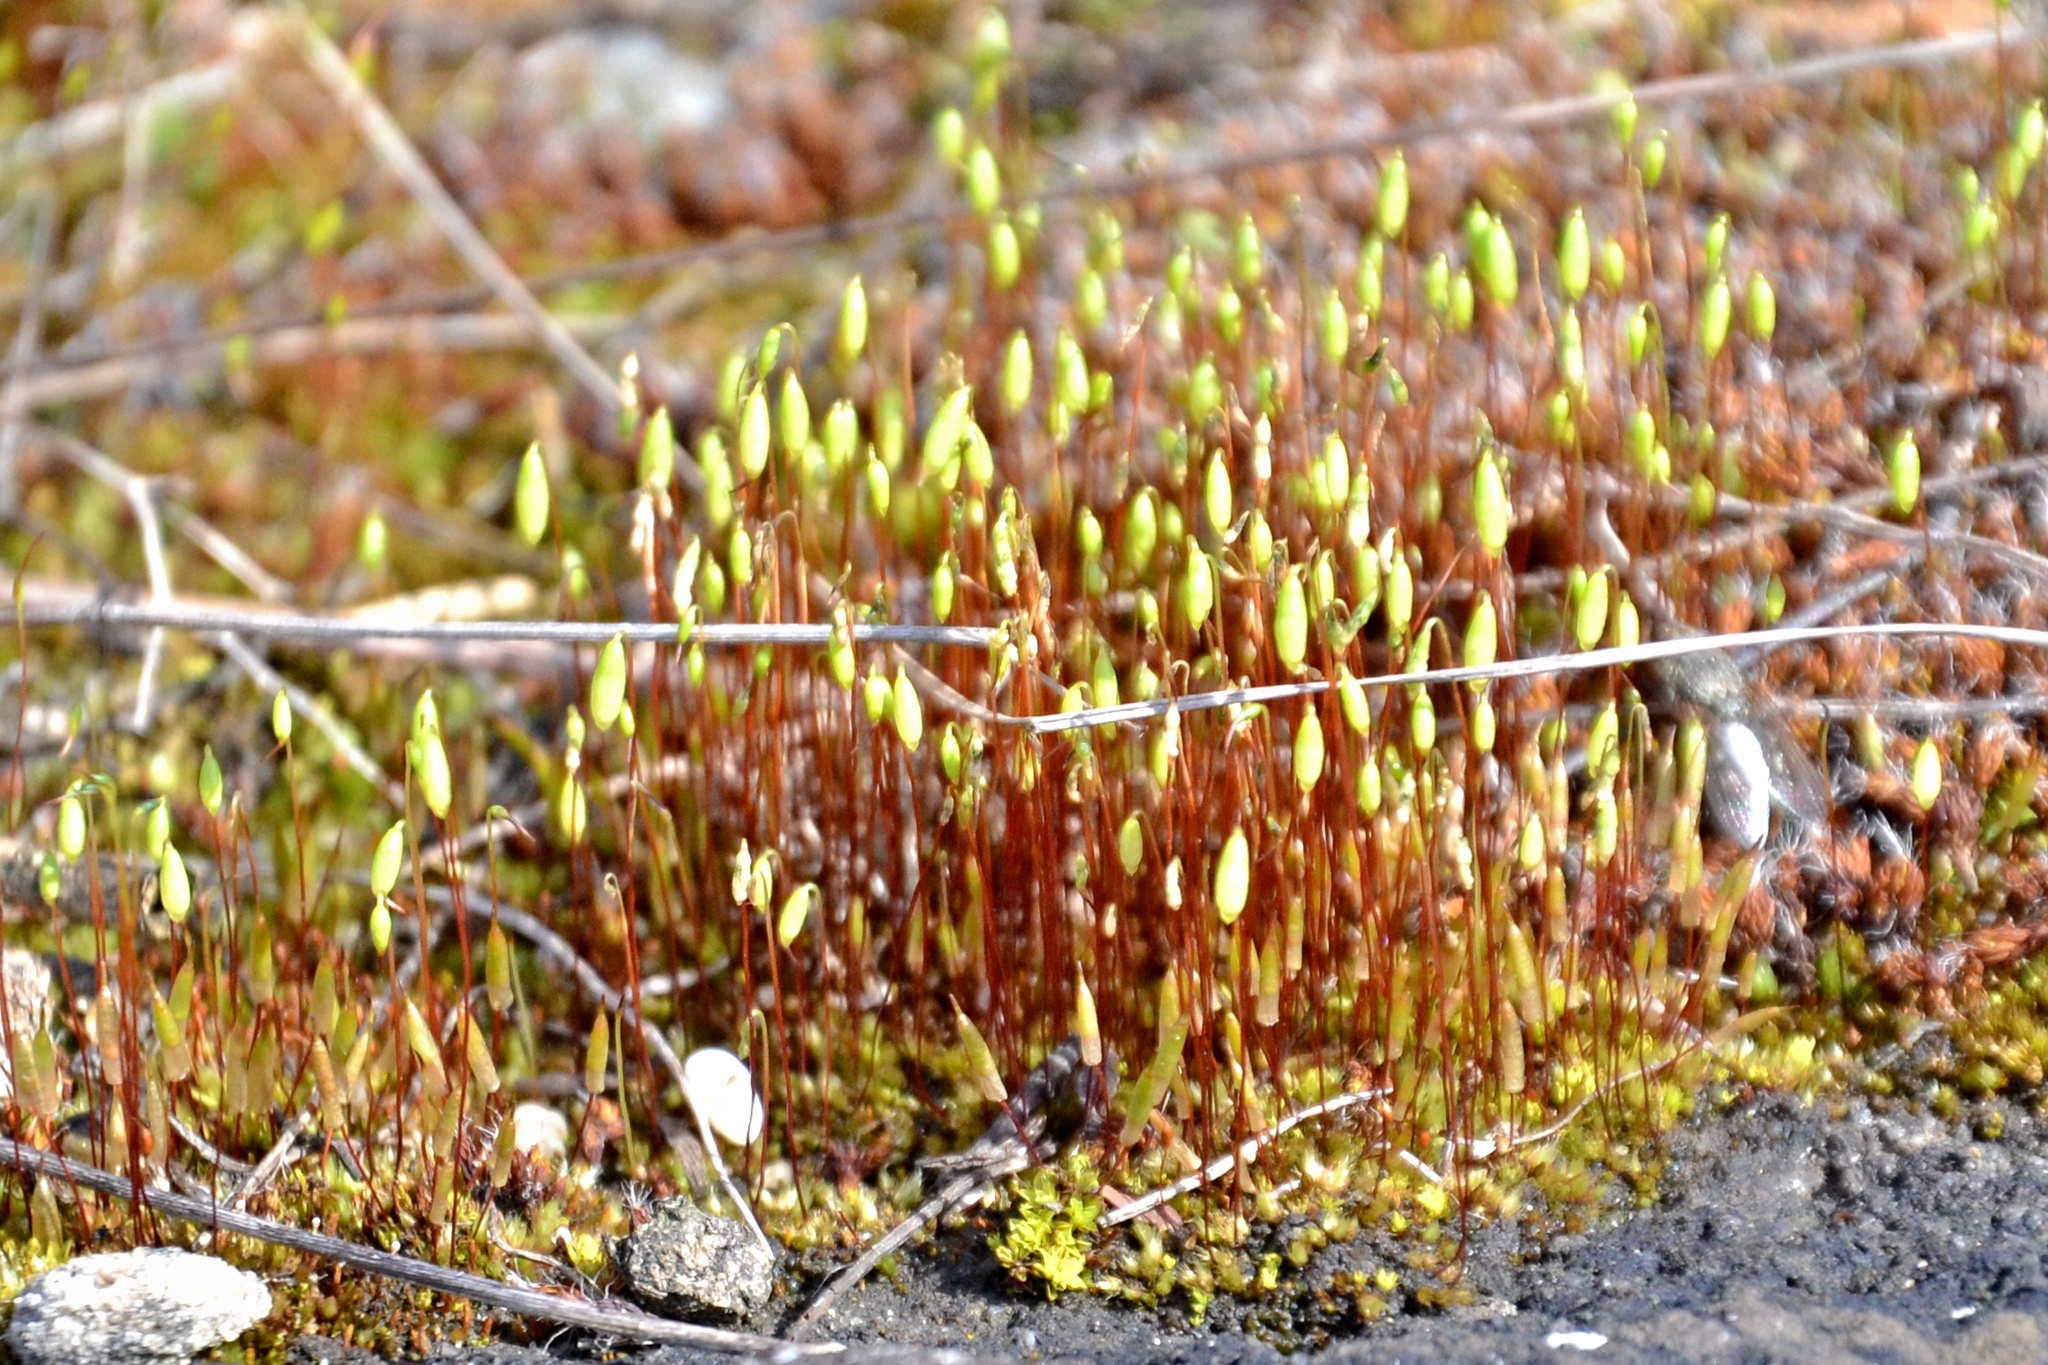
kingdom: Plantae
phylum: Bryophyta
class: Bryopsida
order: Dicranales
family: Ditrichaceae
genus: Ceratodon
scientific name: Ceratodon purpureus
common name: Redshank
